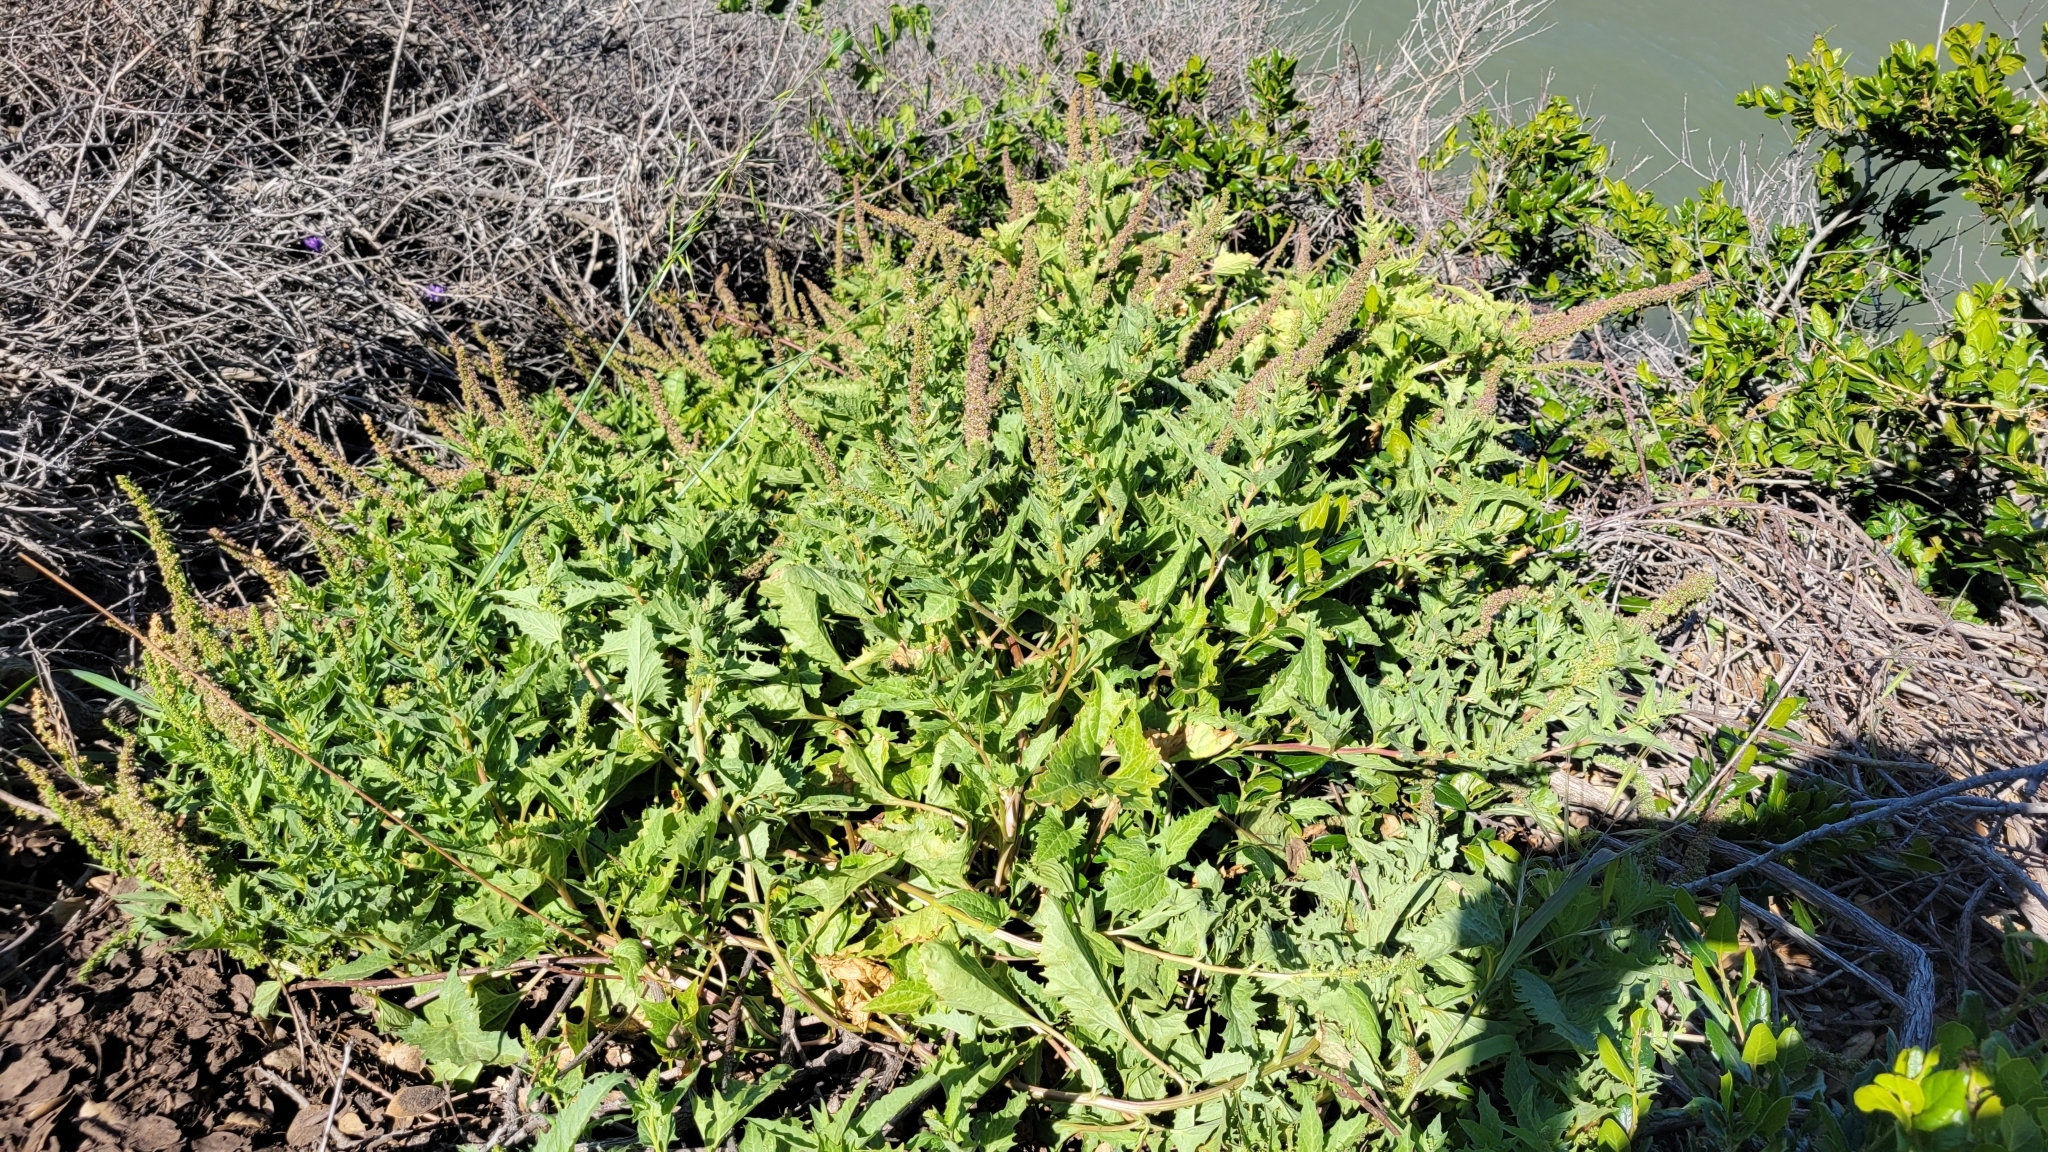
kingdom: Plantae
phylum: Tracheophyta
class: Magnoliopsida
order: Caryophyllales
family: Amaranthaceae
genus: Blitum
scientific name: Blitum californicum
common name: California goosefoot
